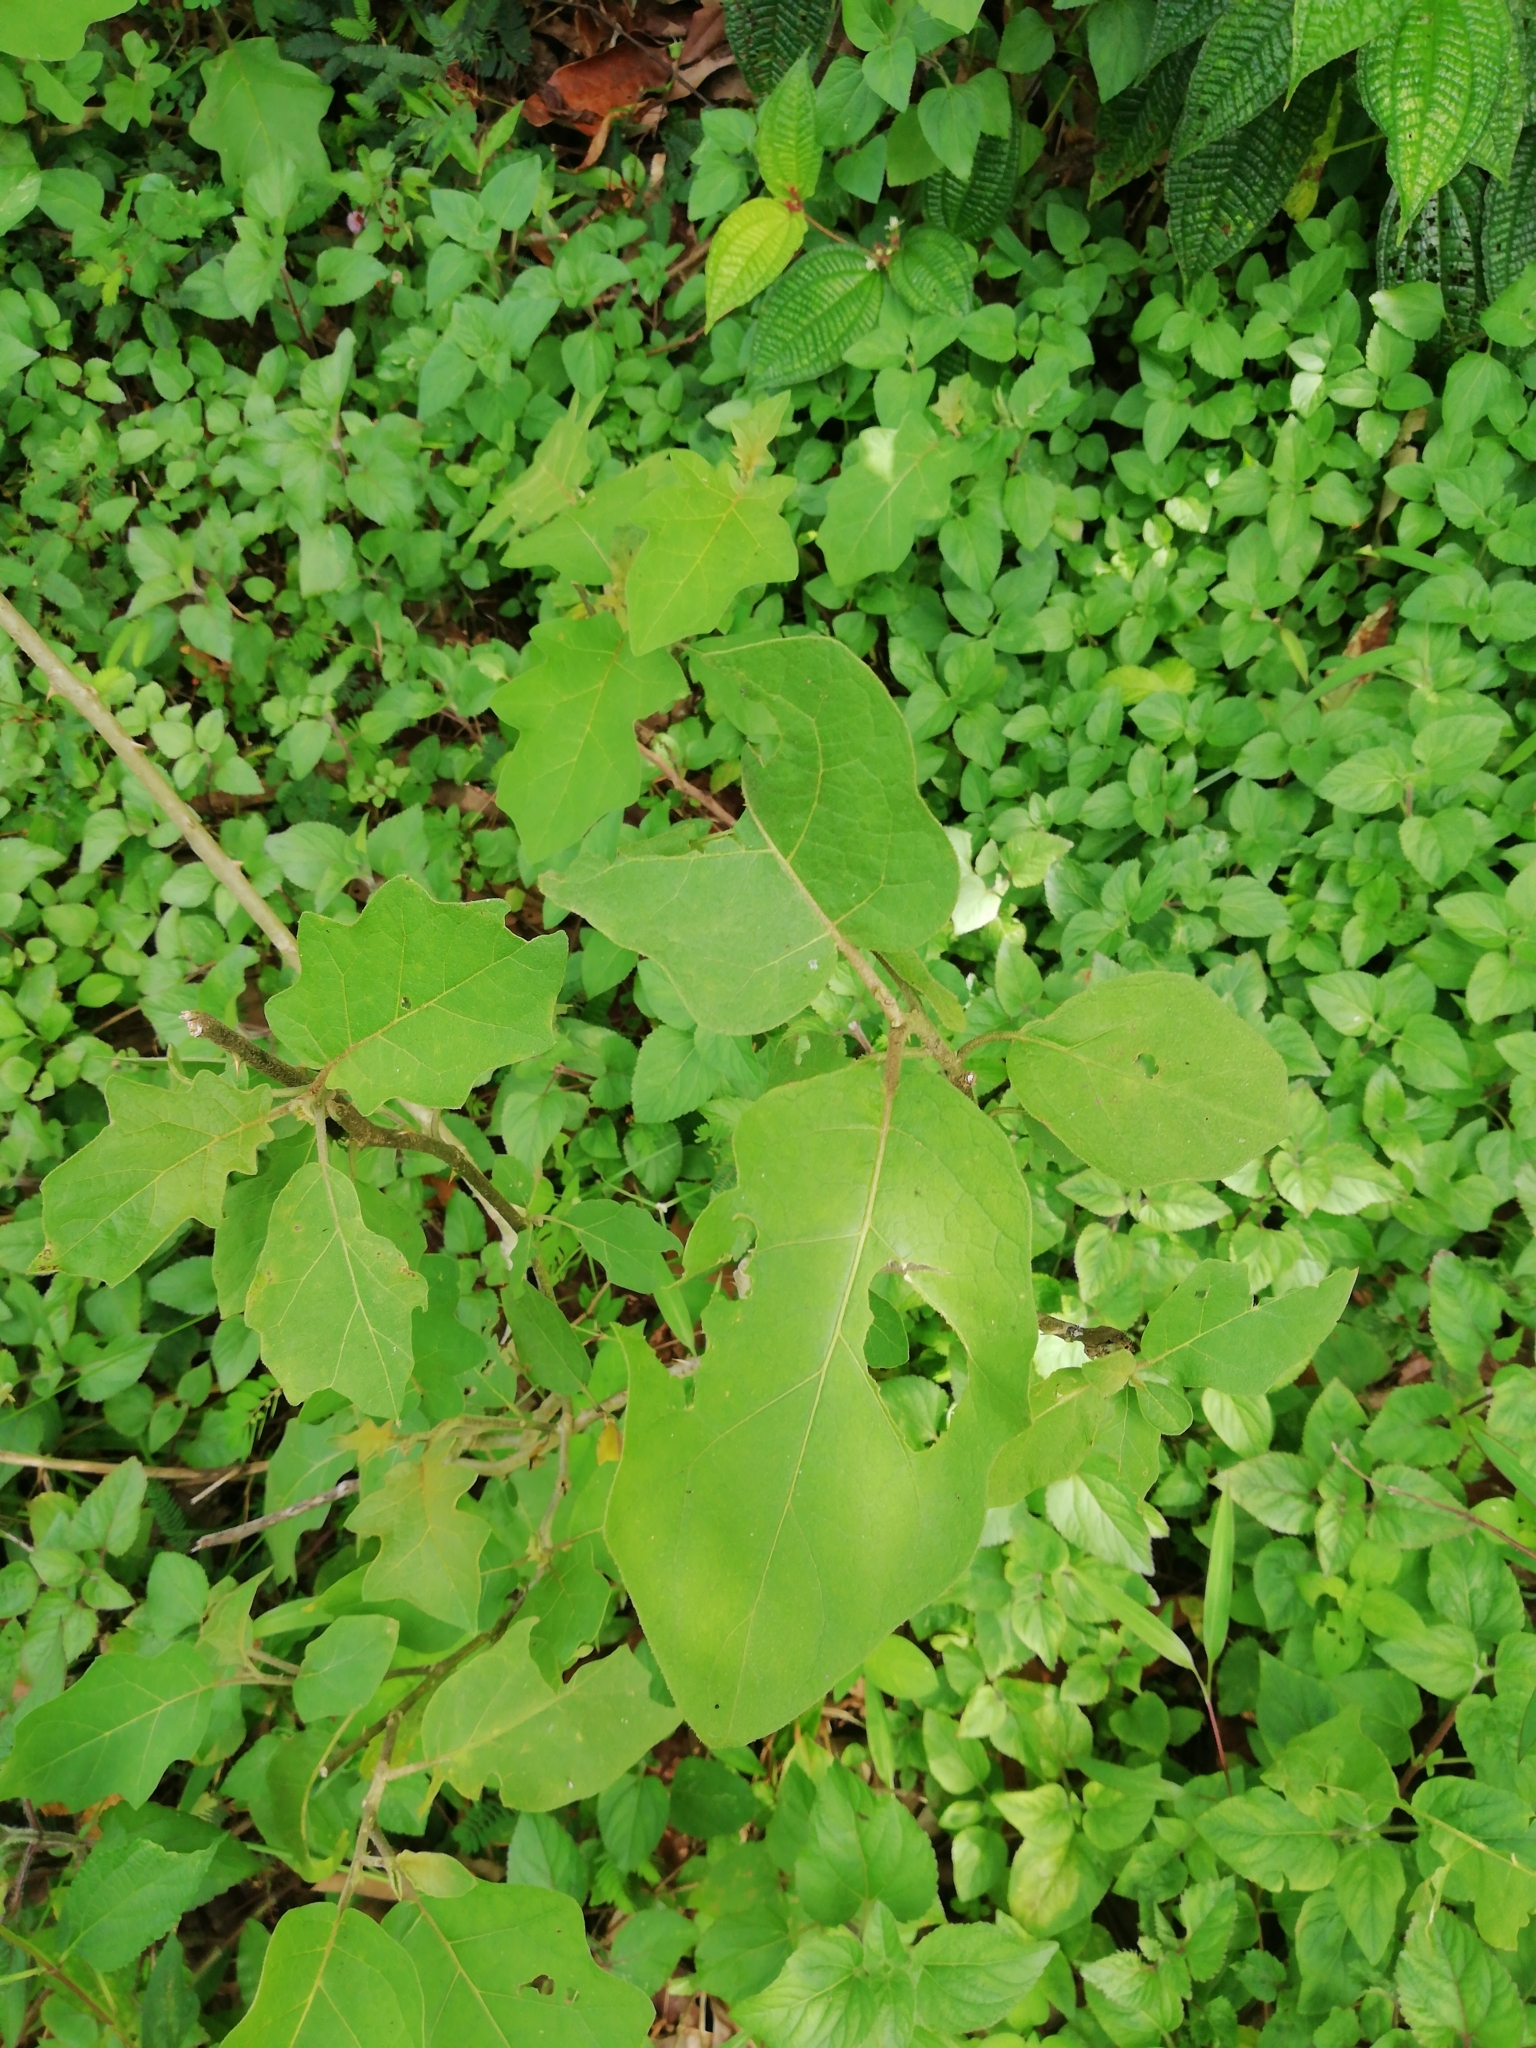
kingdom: Plantae
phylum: Tracheophyta
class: Magnoliopsida
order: Solanales
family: Solanaceae
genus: Solanum
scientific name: Solanum melongena
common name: Eggplant
